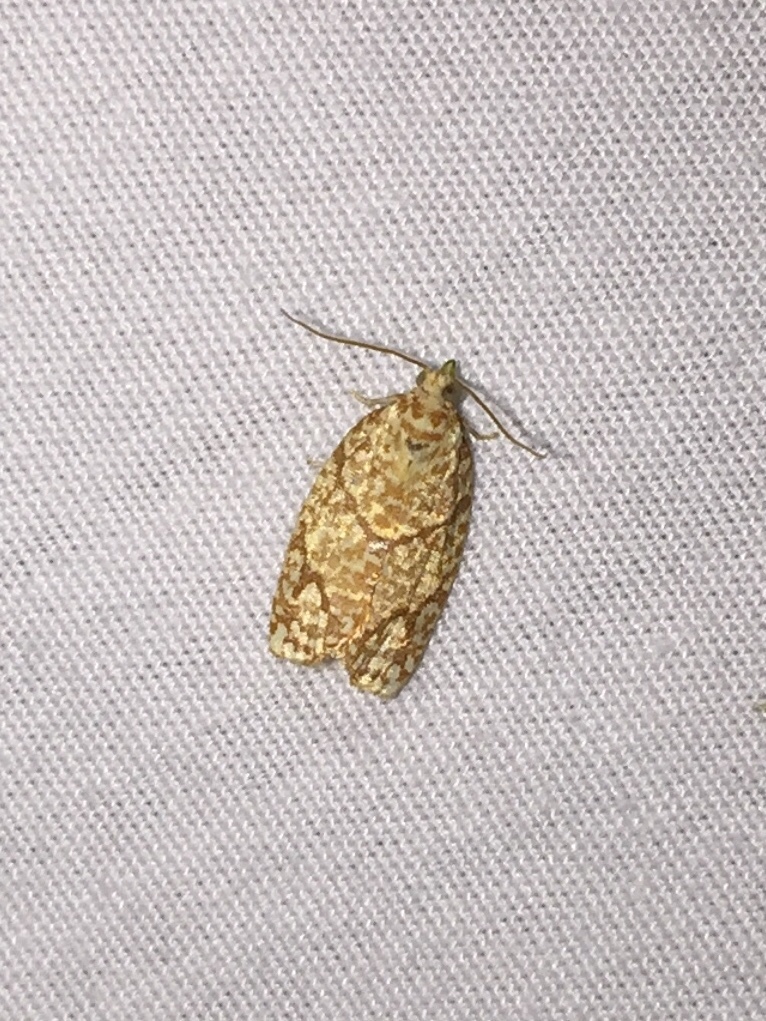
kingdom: Animalia
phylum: Arthropoda
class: Insecta
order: Lepidoptera
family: Tortricidae
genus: Argyrotaenia
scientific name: Argyrotaenia quercifoliana
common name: Yellow-winged oak leafroller moth
